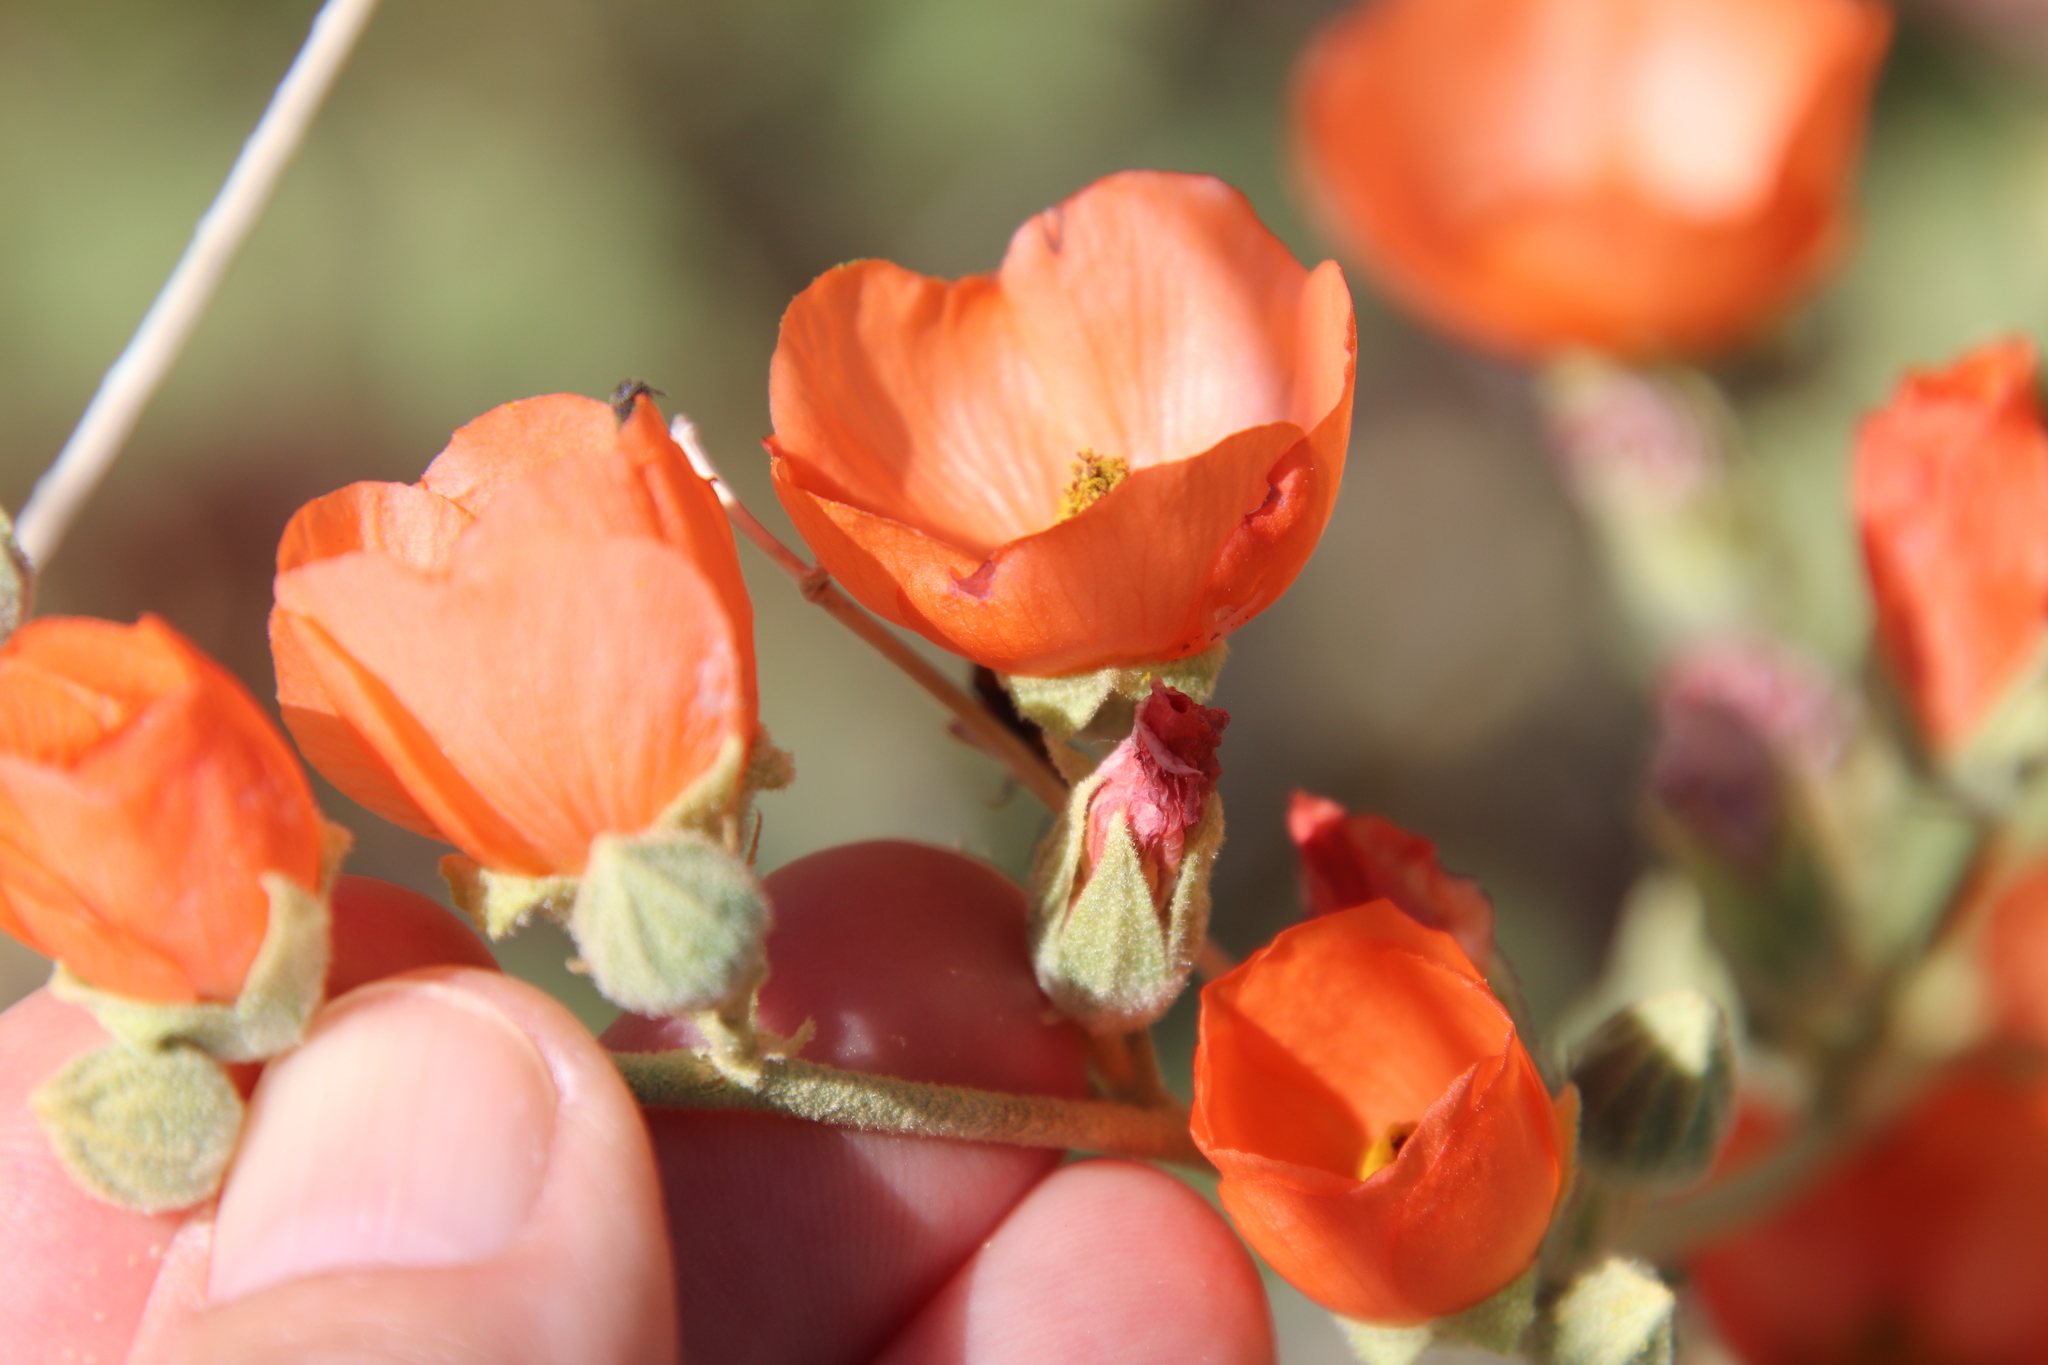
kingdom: Plantae
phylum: Tracheophyta
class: Magnoliopsida
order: Malvales
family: Malvaceae
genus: Sphaeralcea
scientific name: Sphaeralcea ambigua
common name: Apricot globe-mallow
